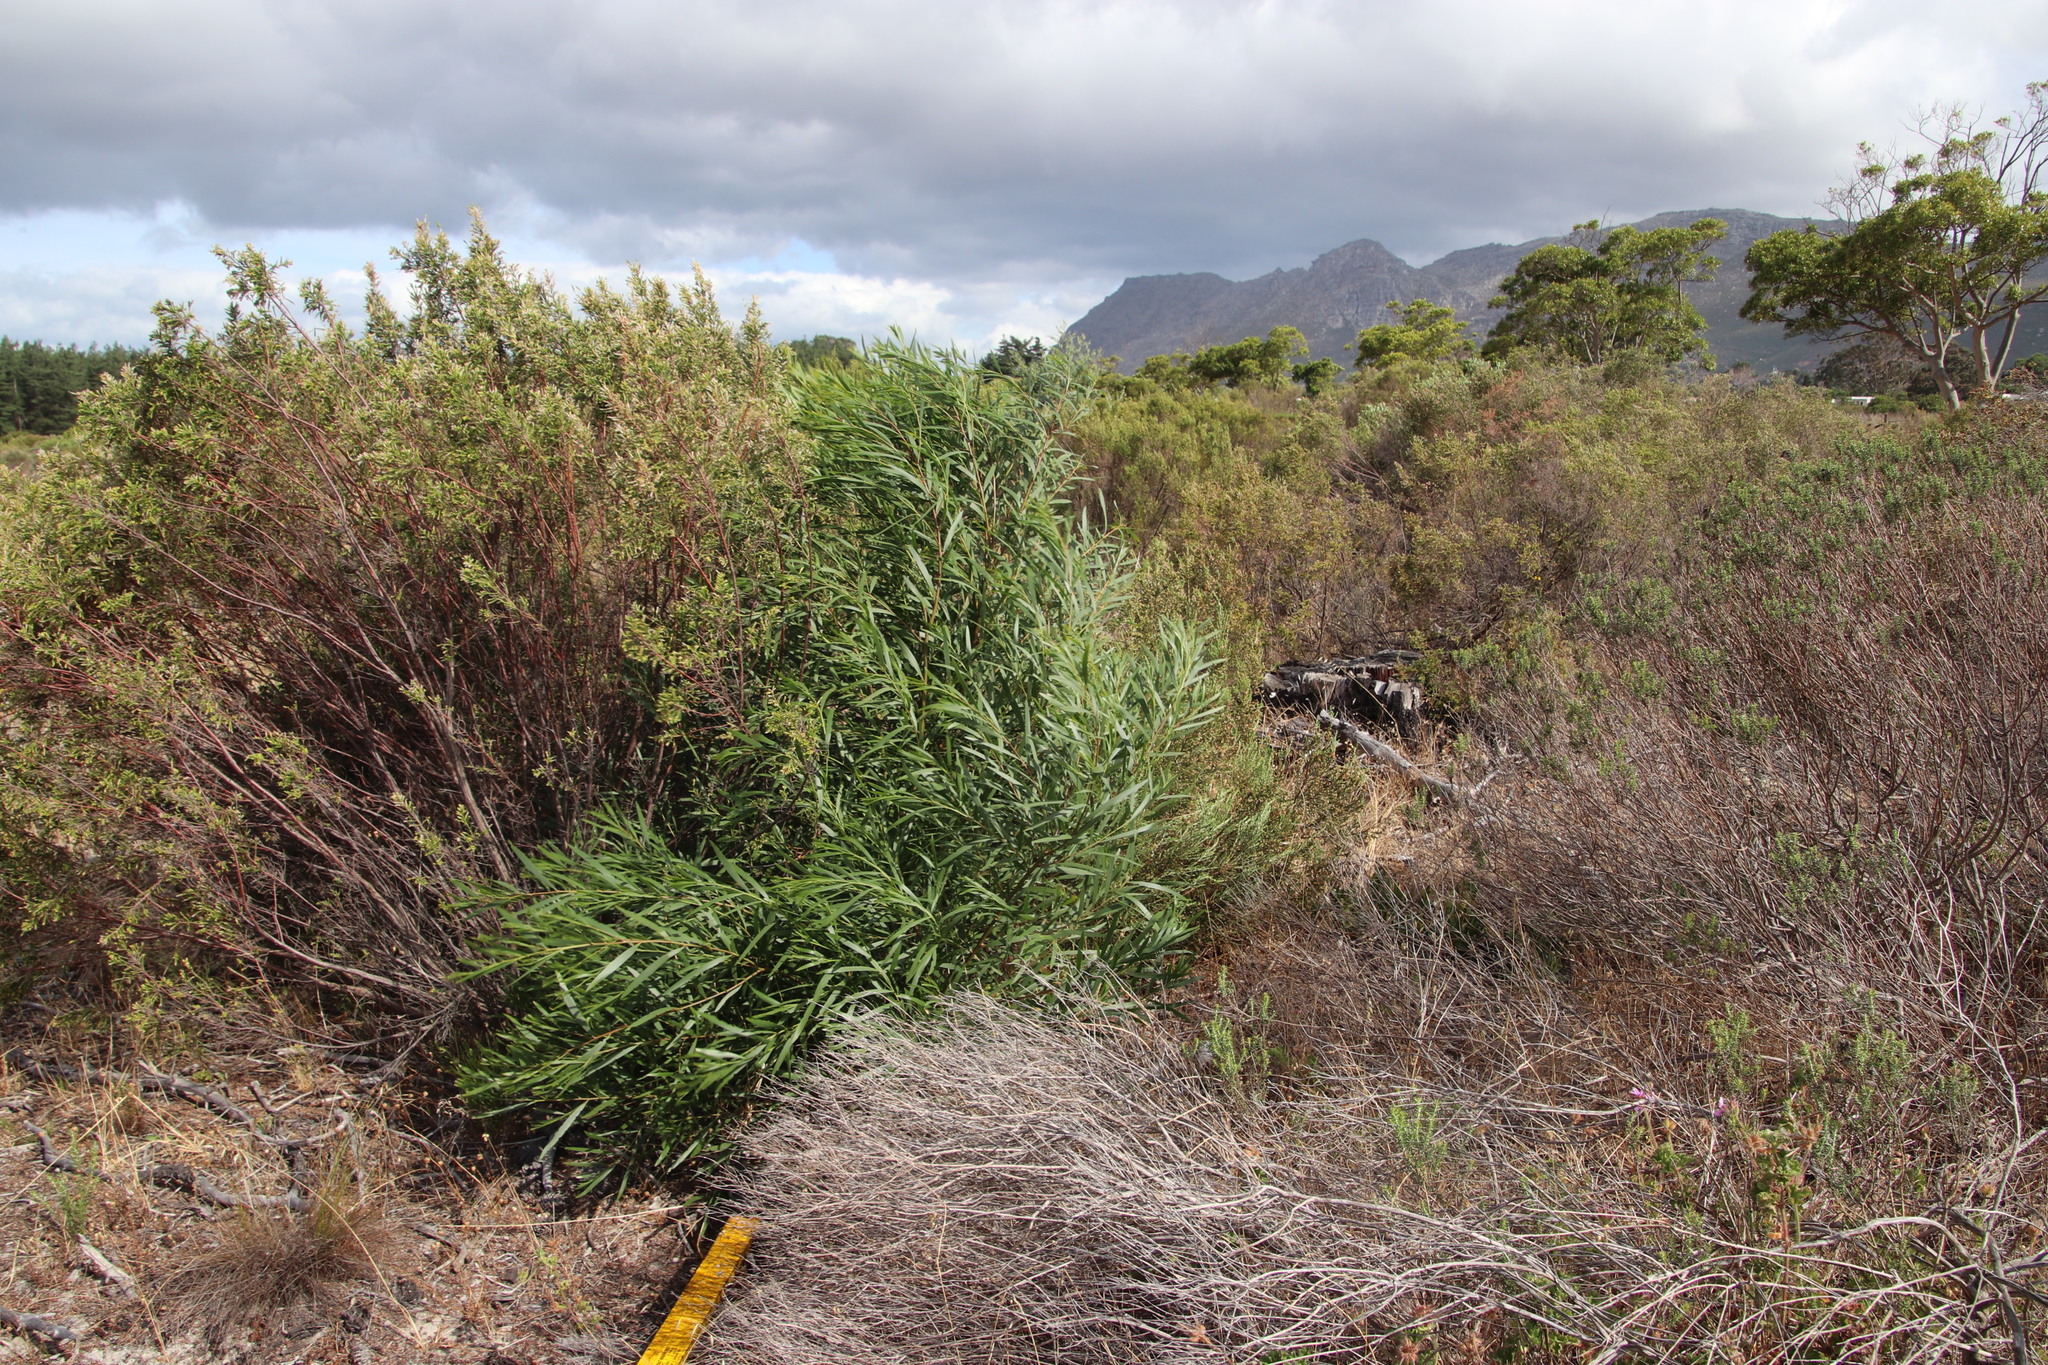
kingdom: Plantae
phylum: Tracheophyta
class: Magnoliopsida
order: Fabales
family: Fabaceae
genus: Acacia
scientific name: Acacia longifolia
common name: Sydney golden wattle
